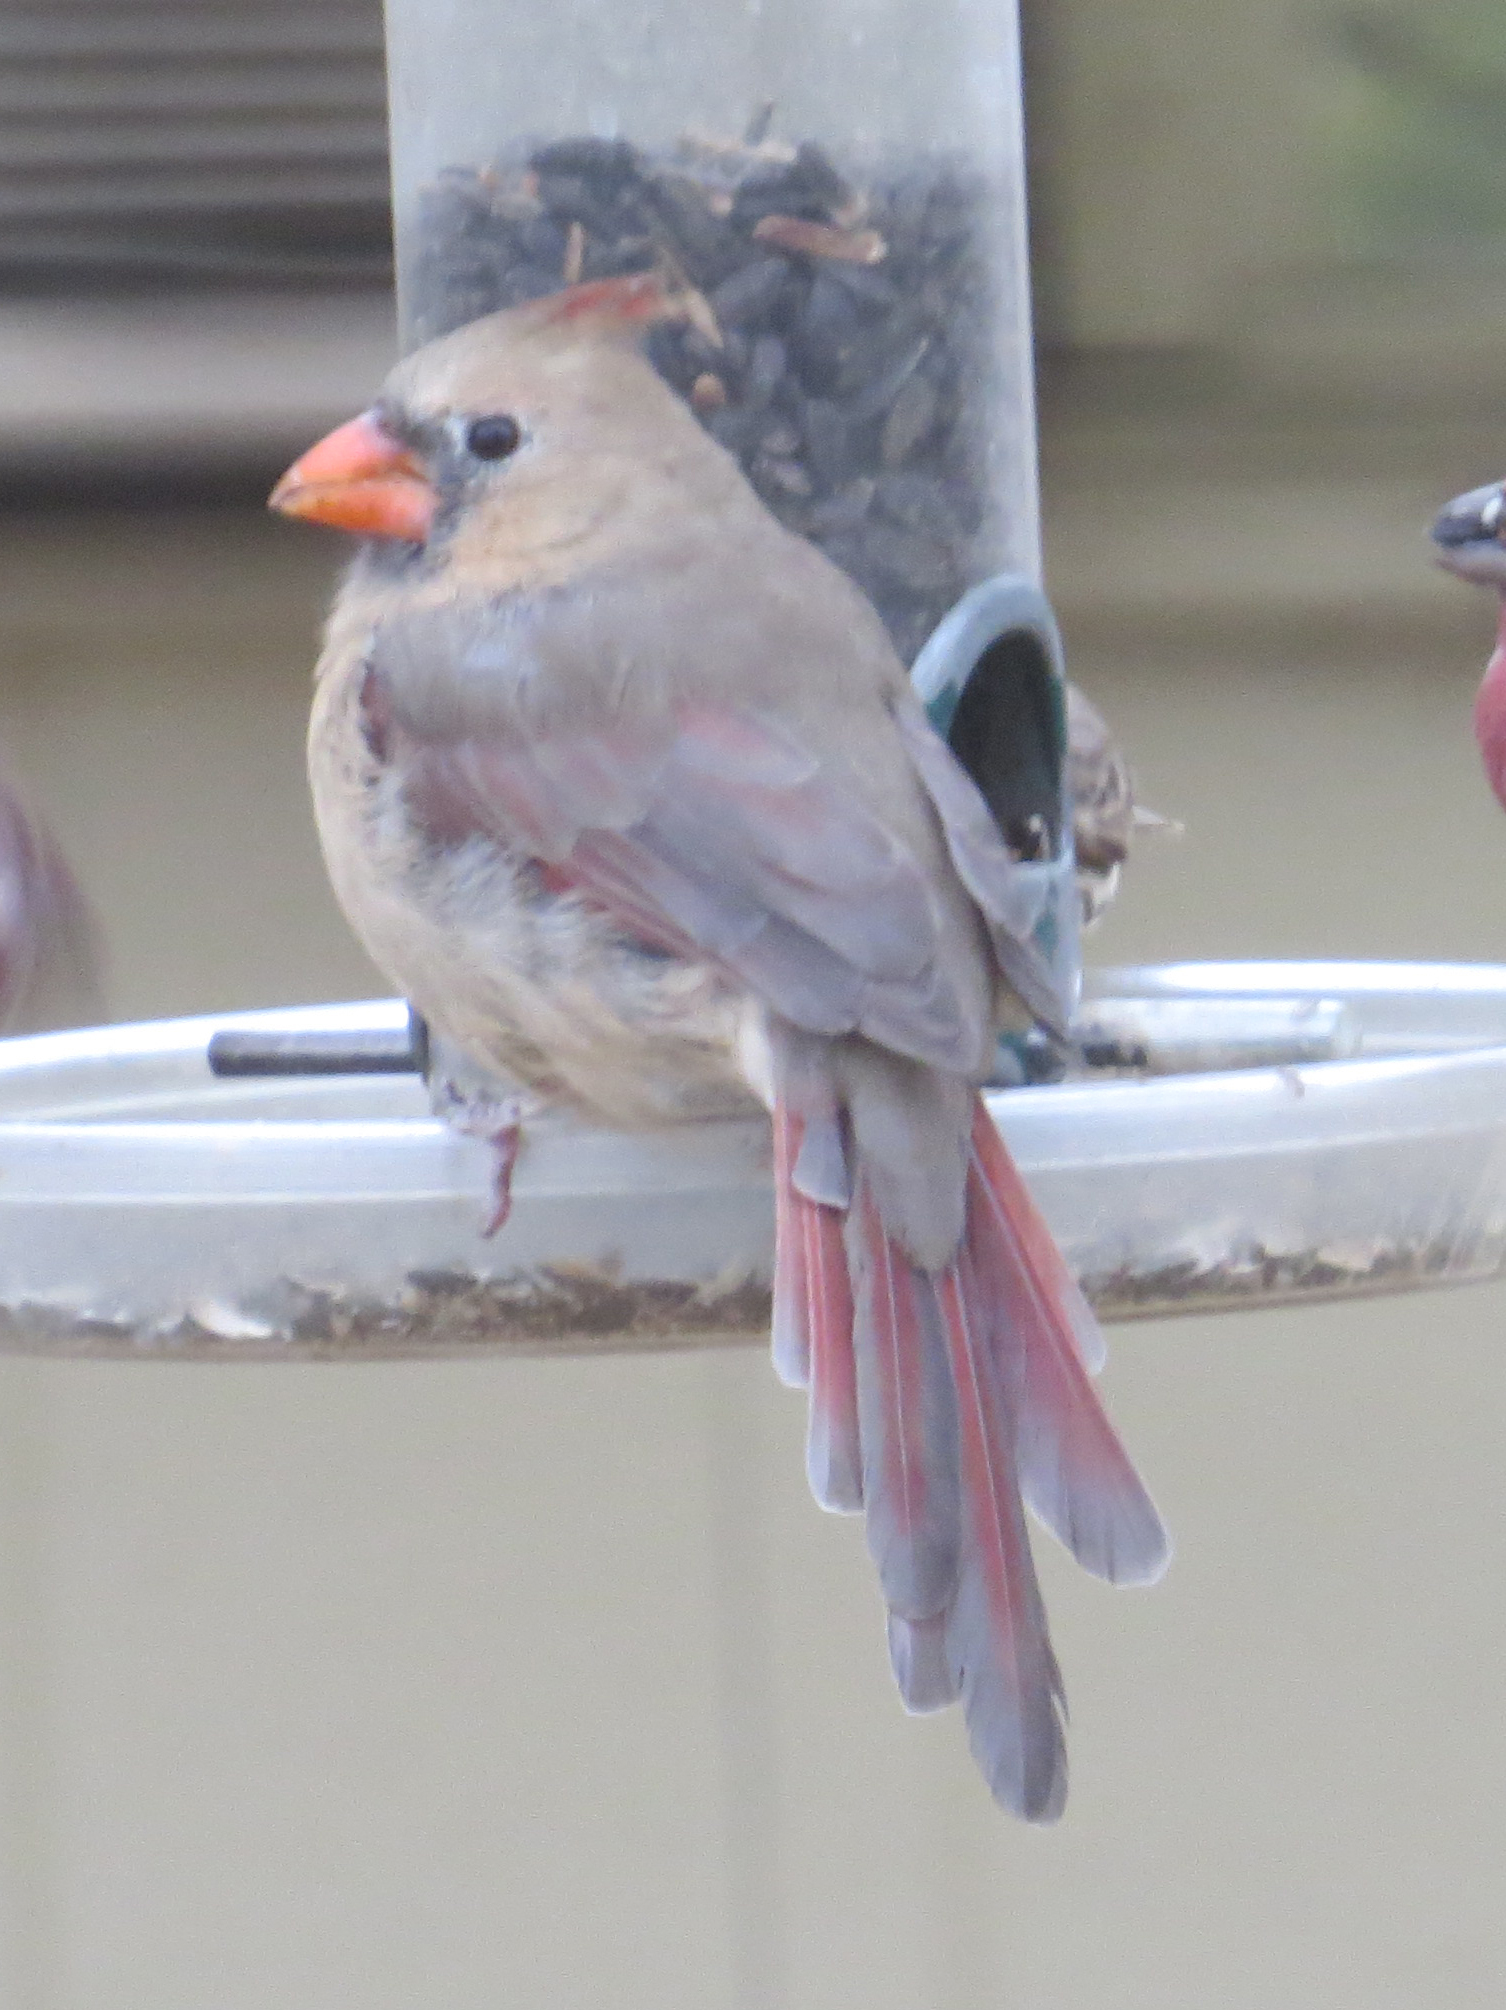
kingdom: Animalia
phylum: Chordata
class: Aves
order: Passeriformes
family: Cardinalidae
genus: Cardinalis
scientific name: Cardinalis cardinalis
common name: Northern cardinal
